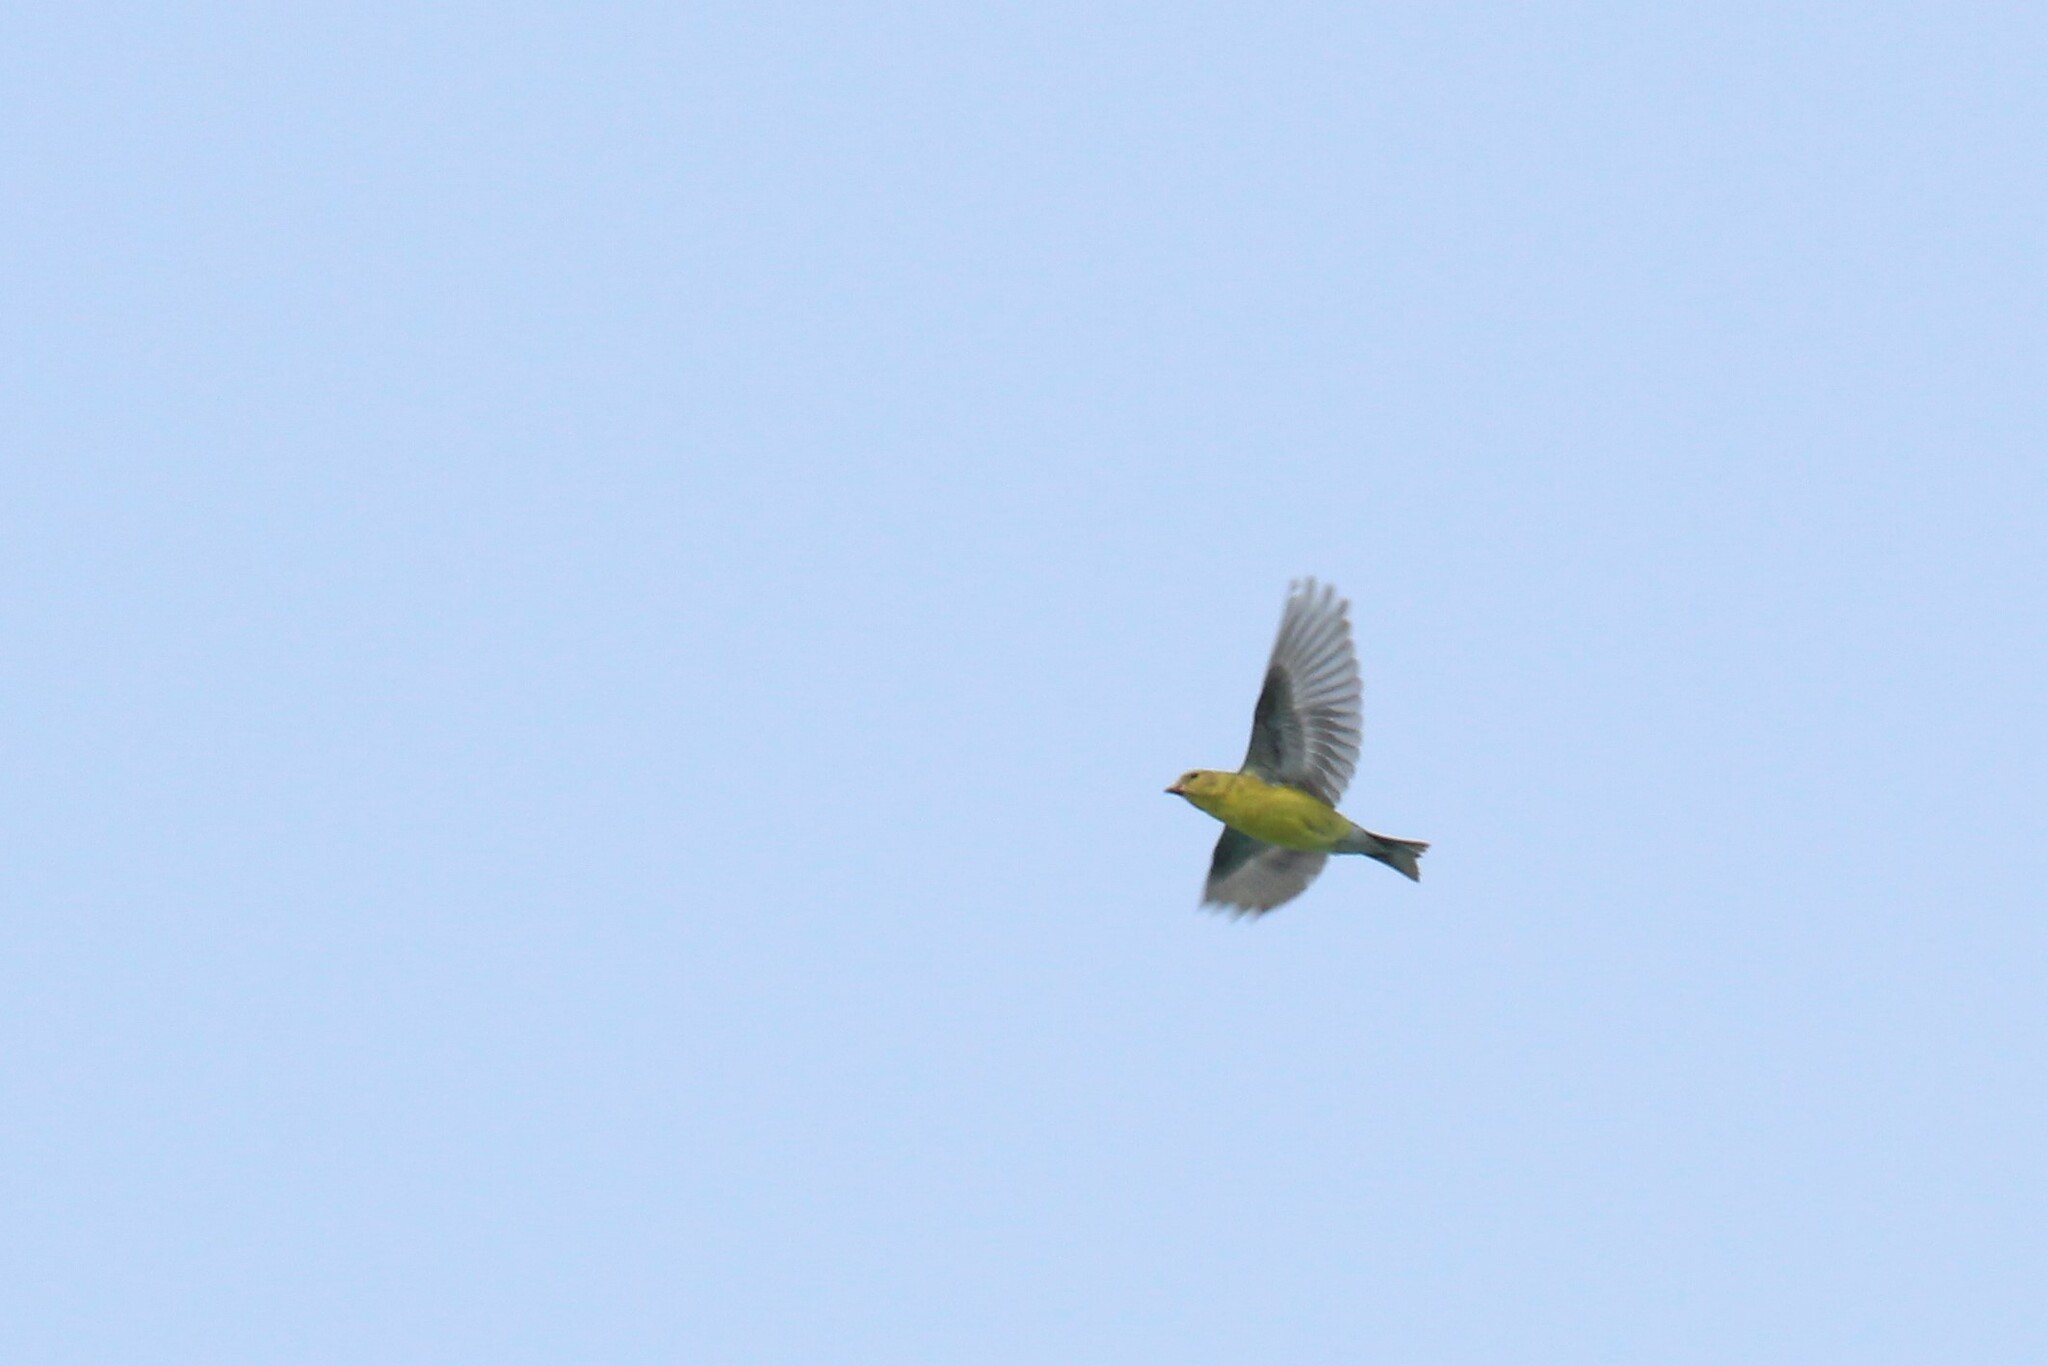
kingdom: Animalia
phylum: Chordata
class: Aves
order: Passeriformes
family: Fringillidae
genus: Spinus
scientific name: Spinus tristis
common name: American goldfinch
